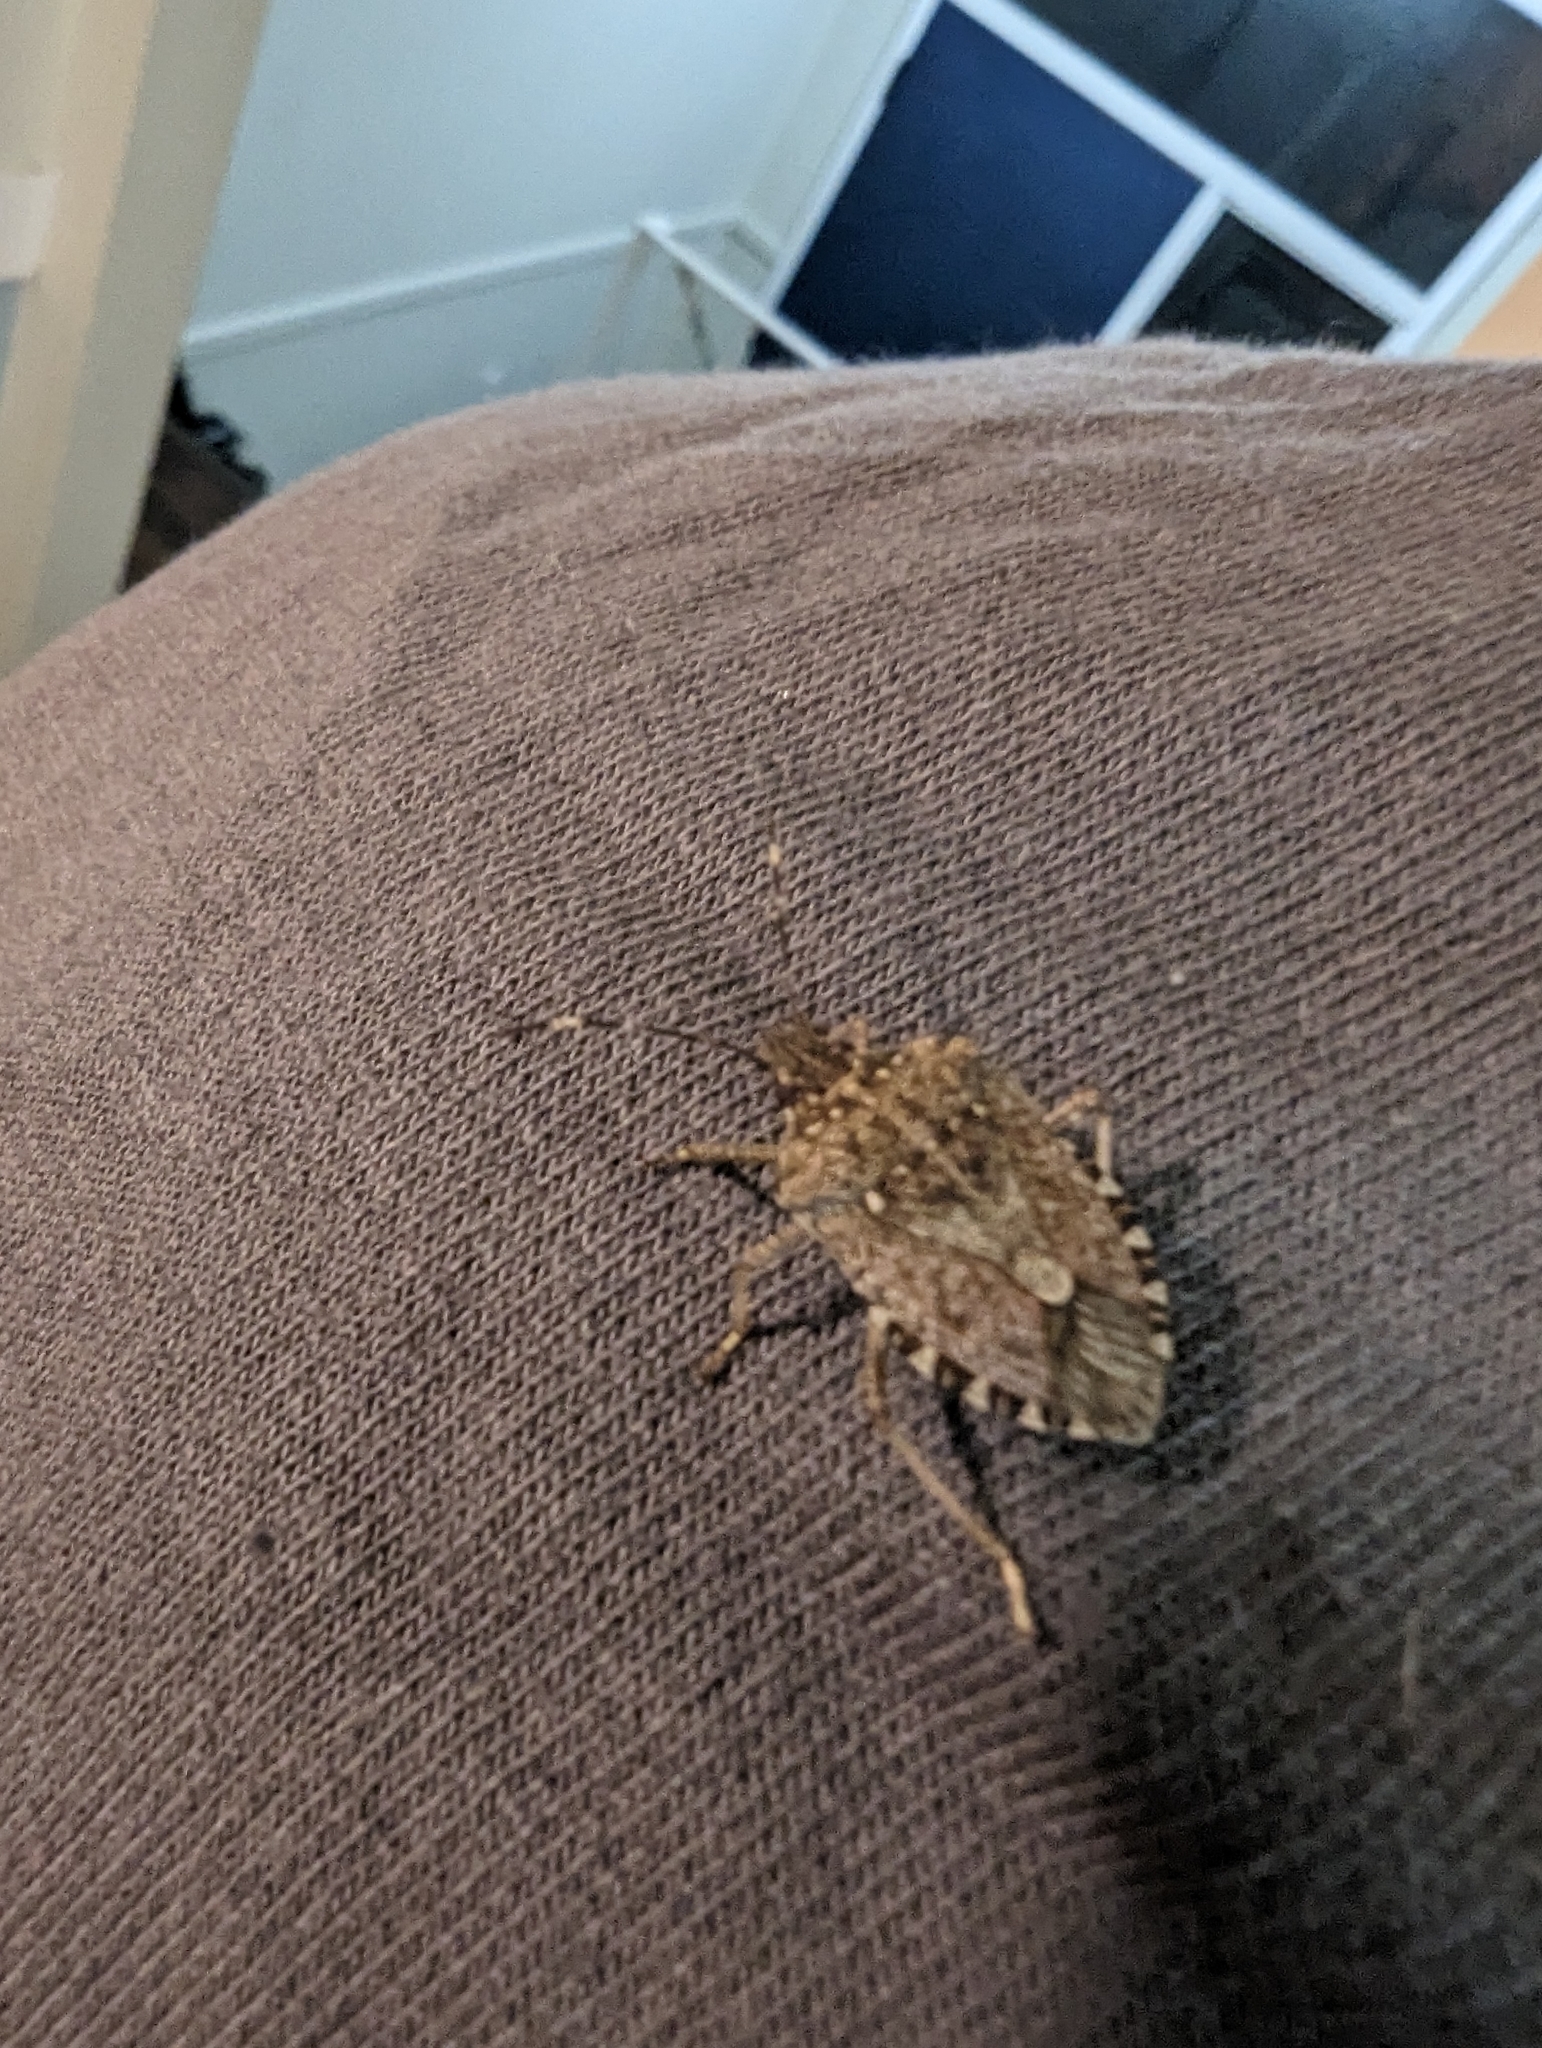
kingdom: Animalia
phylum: Arthropoda
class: Insecta
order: Hemiptera
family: Pentatomidae
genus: Halyomorpha
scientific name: Halyomorpha halys
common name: Brown marmorated stink bug
